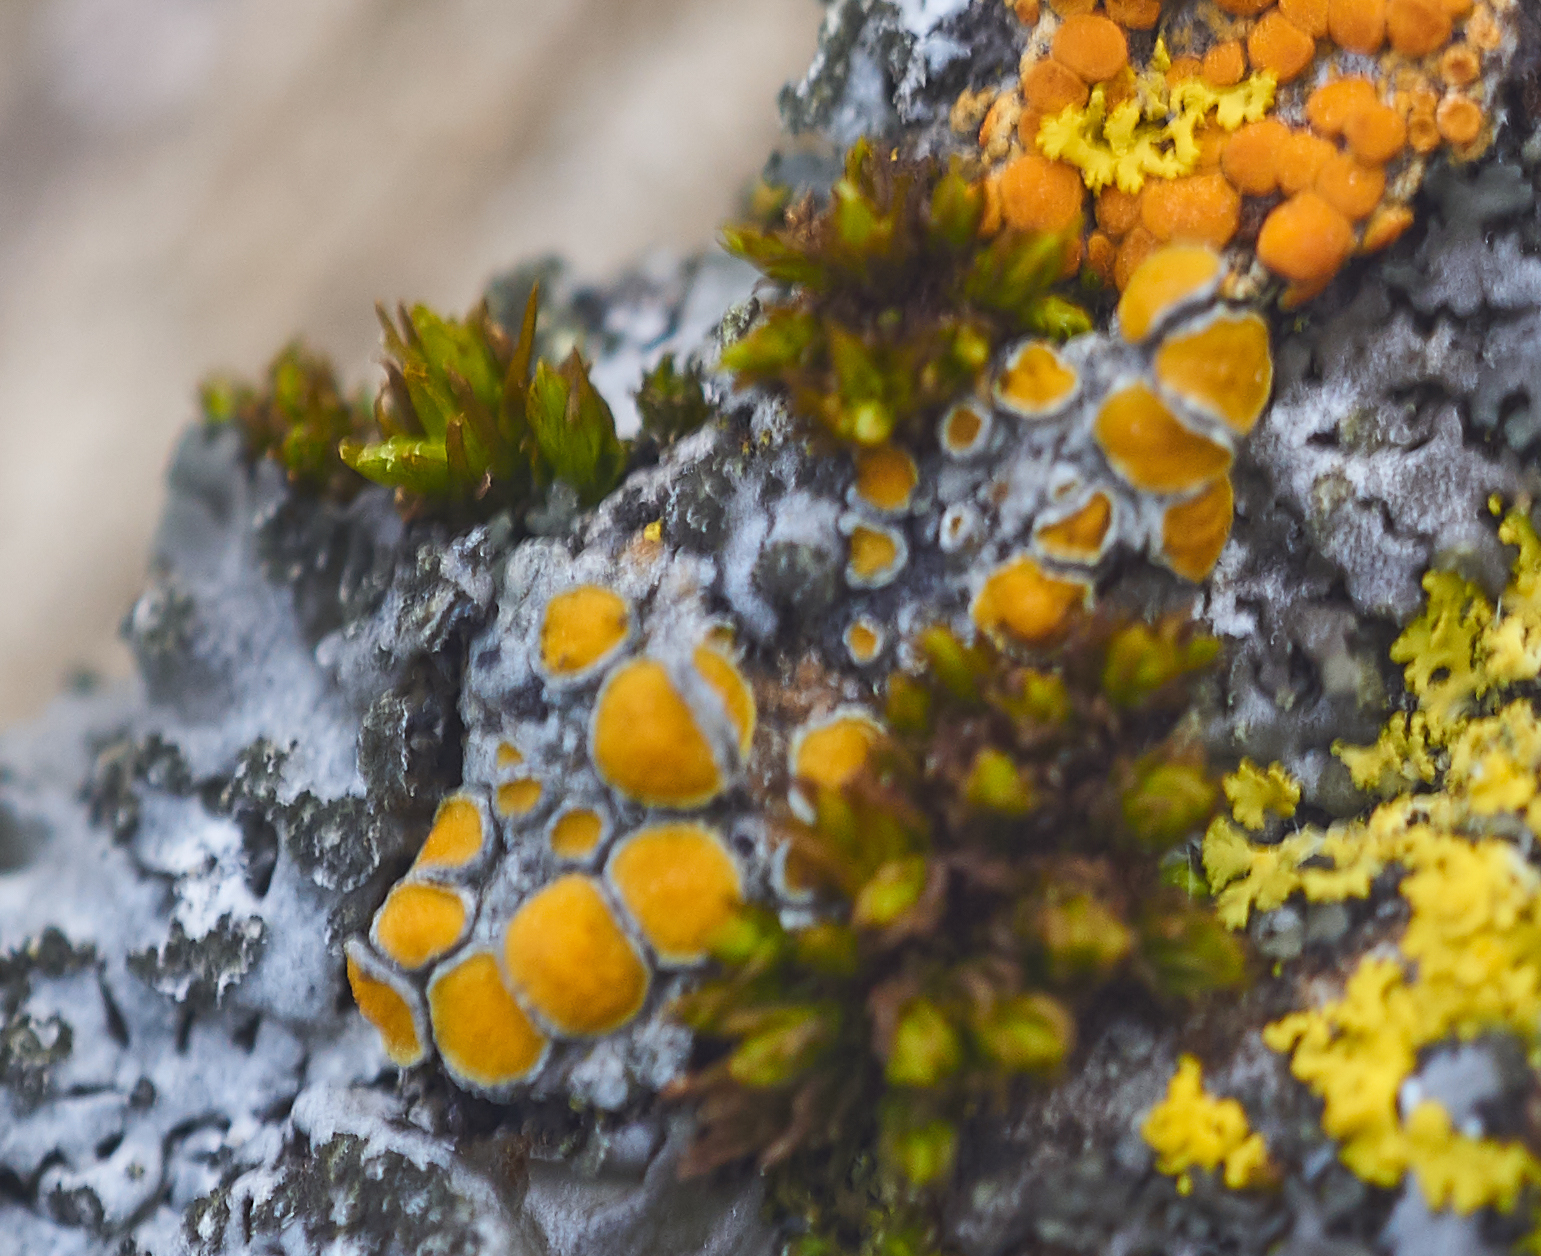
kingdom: Fungi
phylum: Ascomycota
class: Lecanoromycetes
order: Teloschistales
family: Teloschistaceae
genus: Caloplaca
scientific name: Caloplaca cerina
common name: Gray-rimmed firedot lichen
